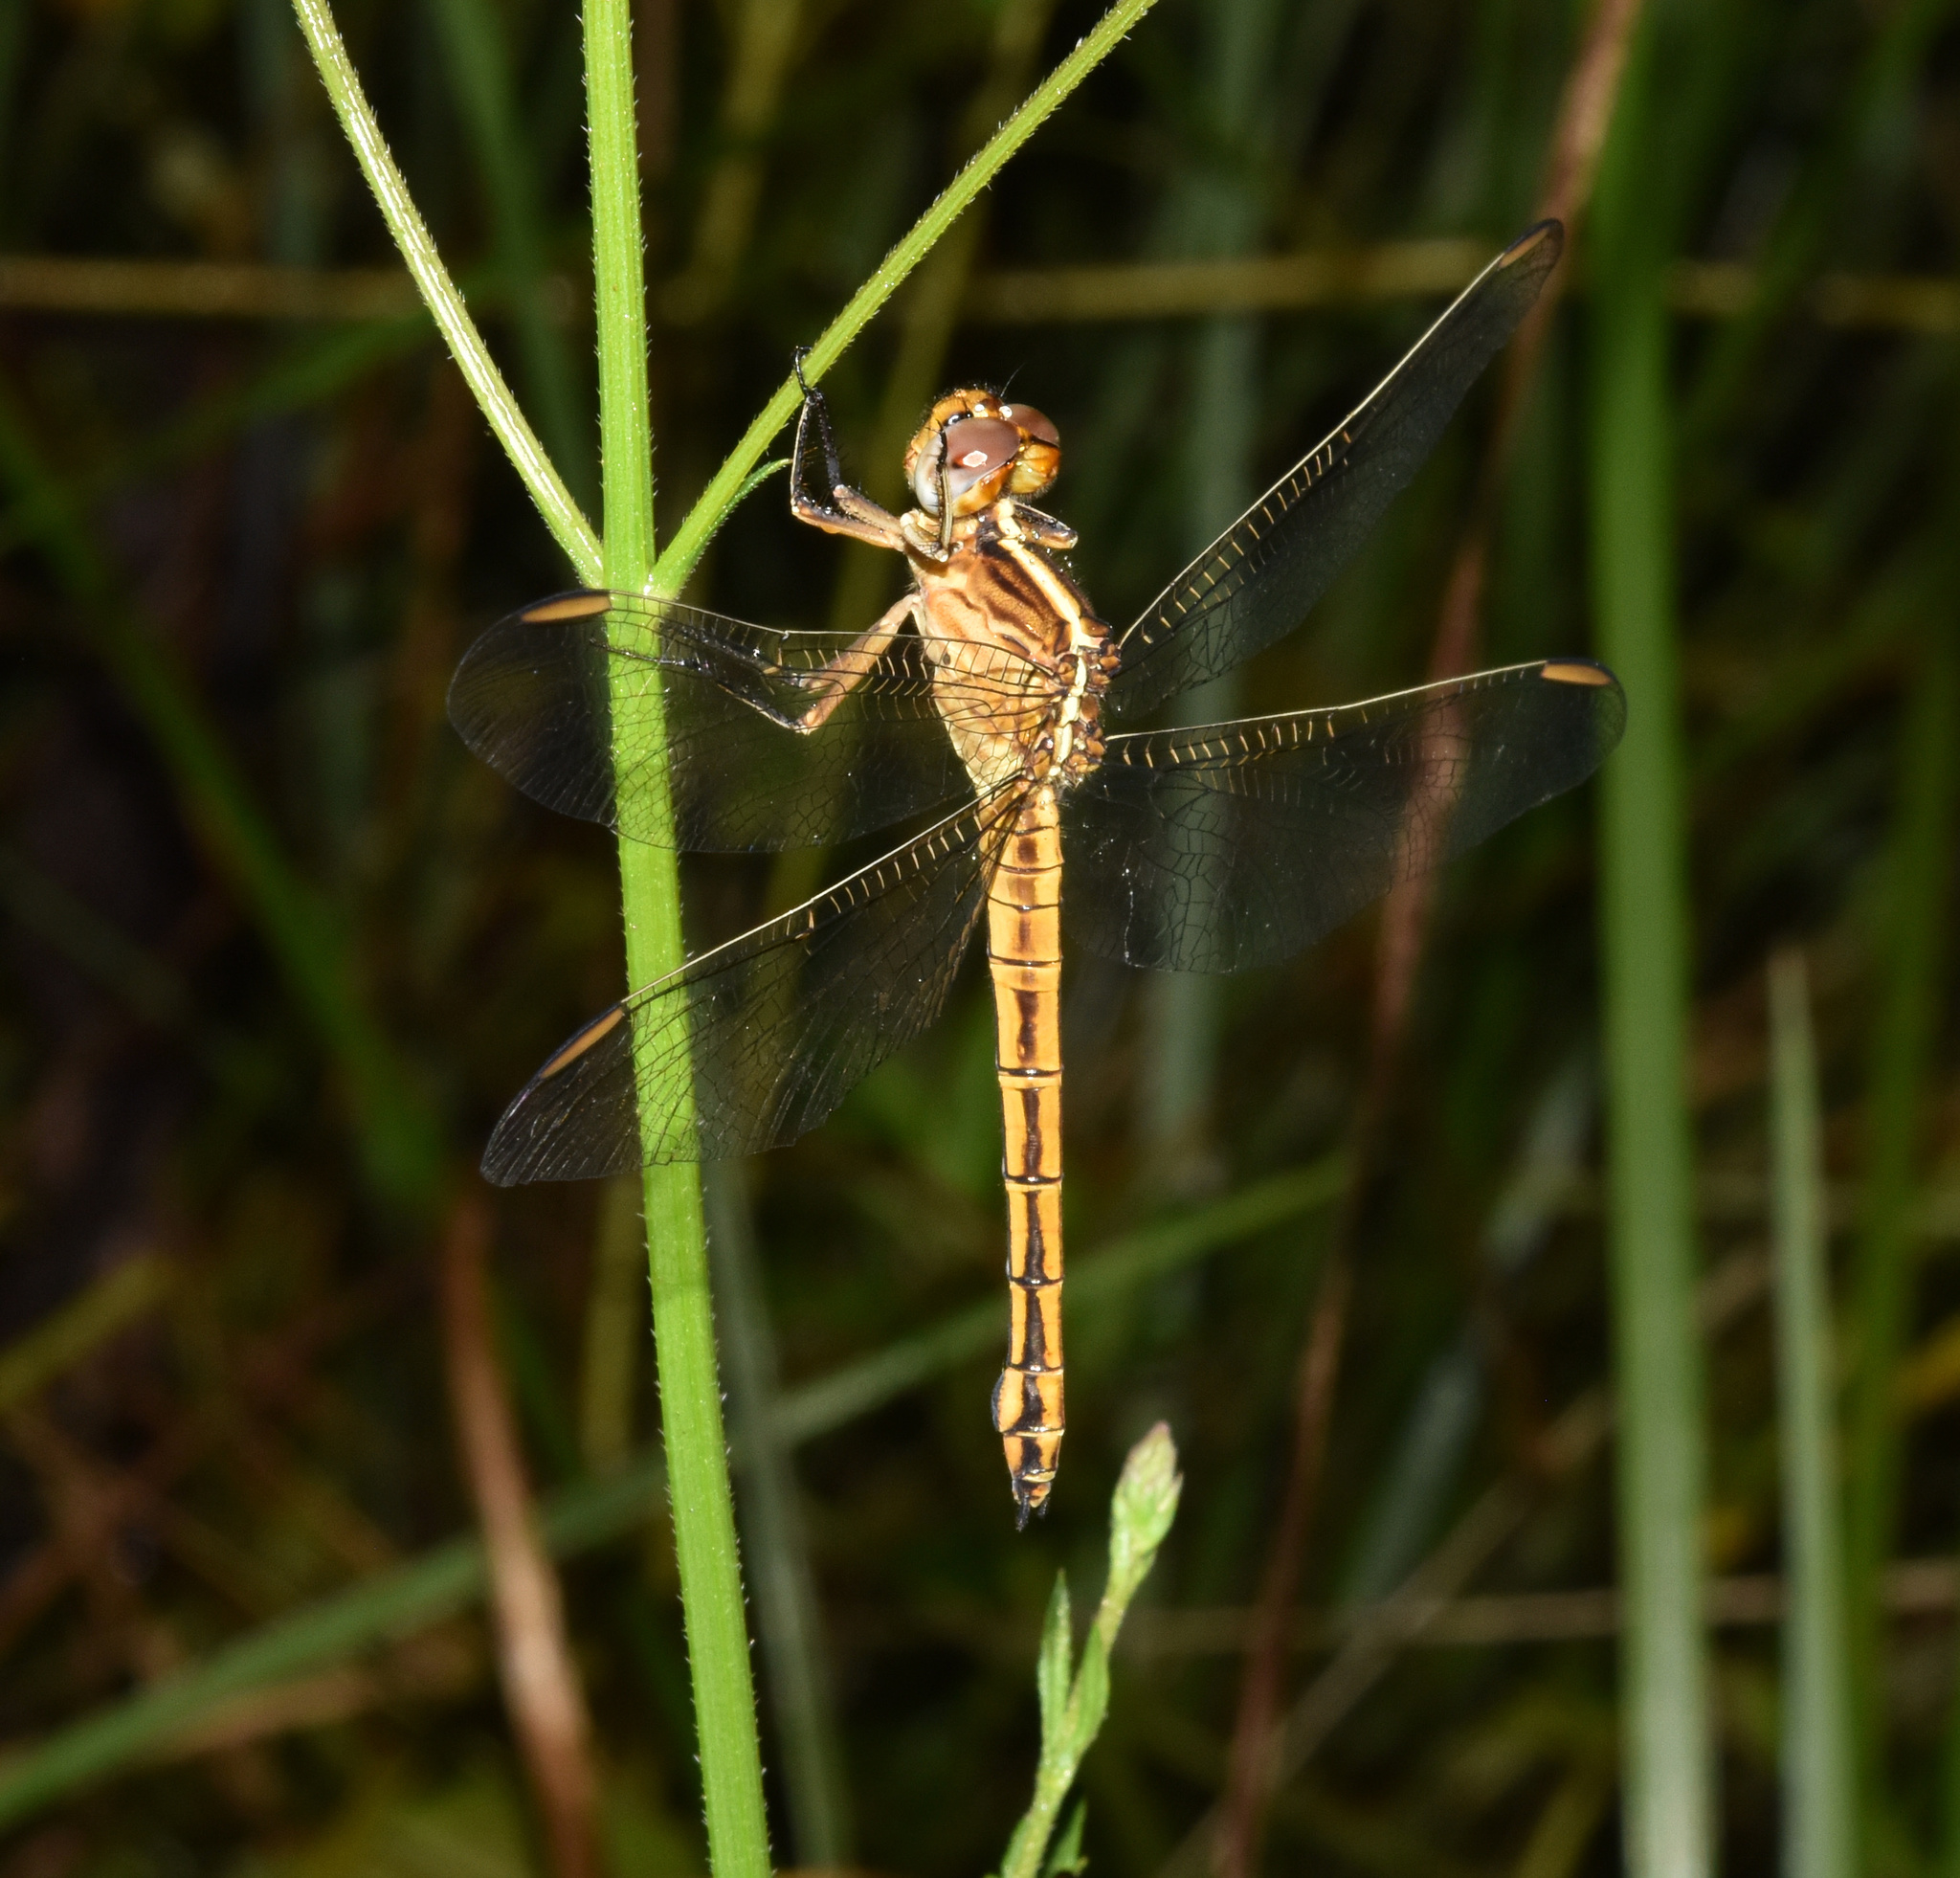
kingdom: Animalia
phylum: Arthropoda
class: Insecta
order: Odonata
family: Libellulidae
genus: Nesciothemis
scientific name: Nesciothemis farinosa
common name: Eastern blacktail
